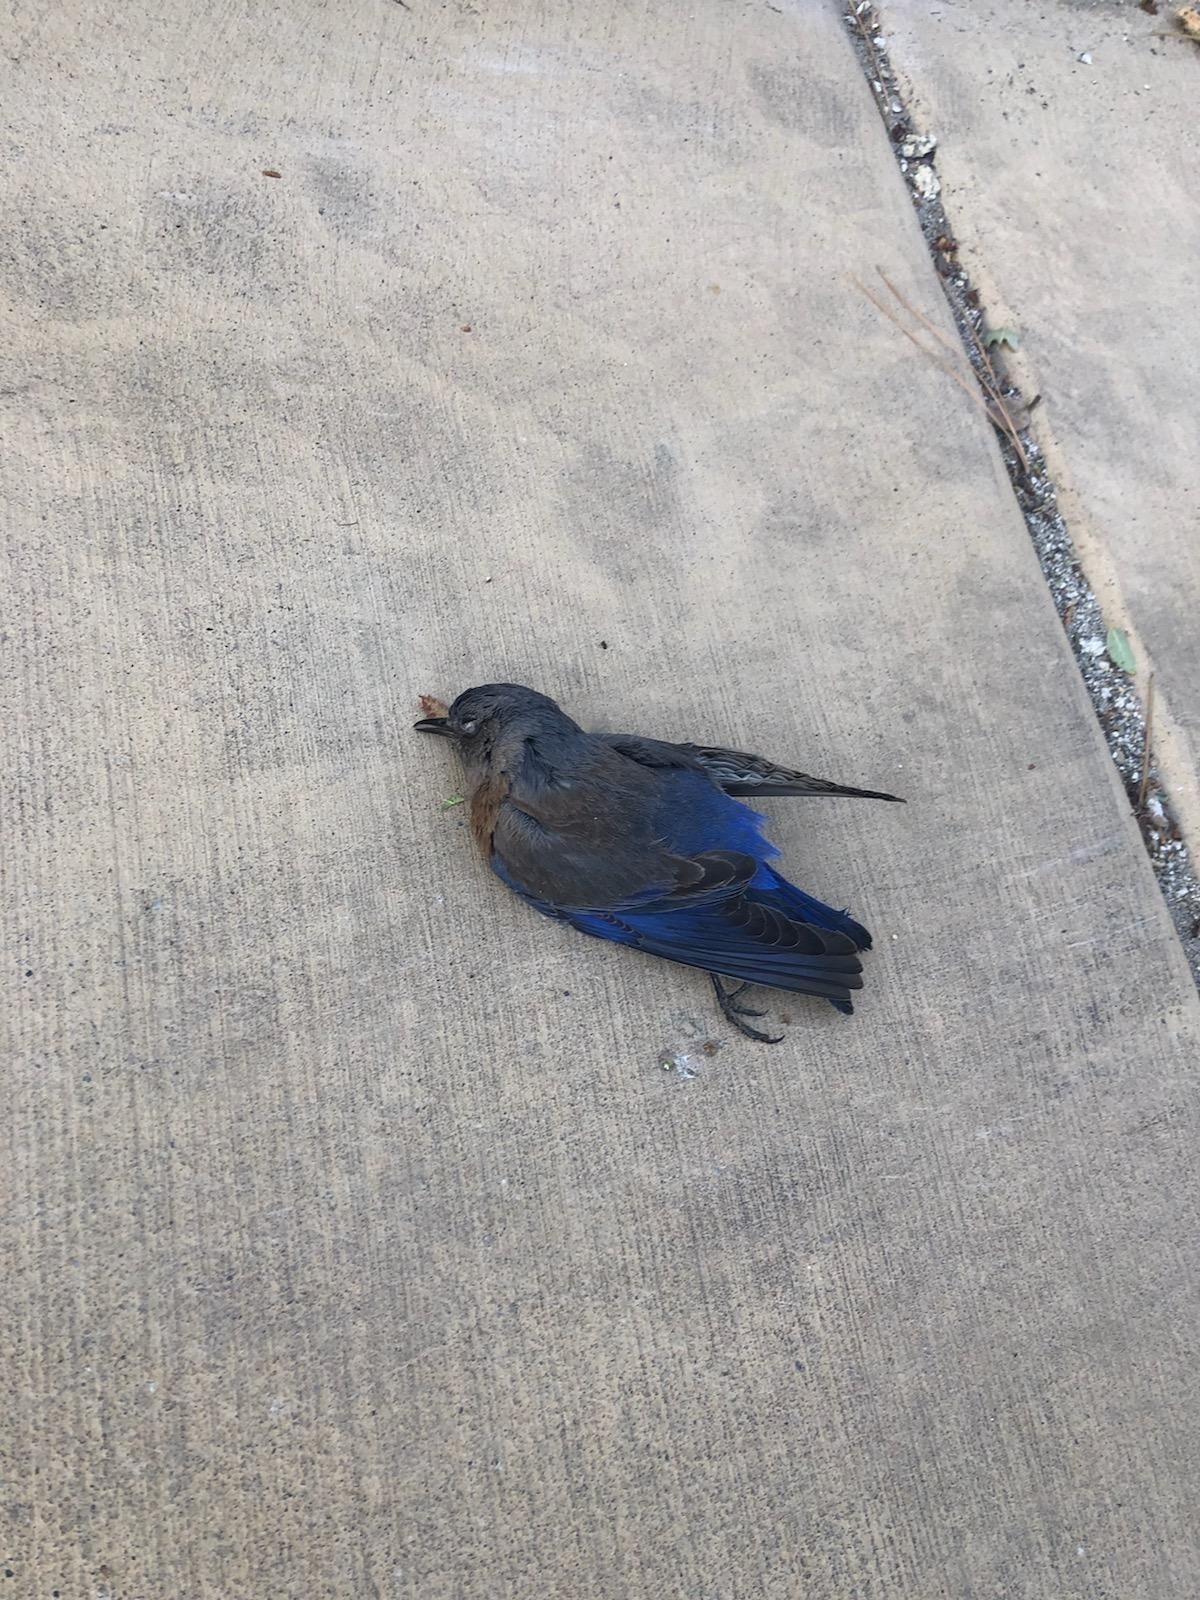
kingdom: Animalia
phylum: Chordata
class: Aves
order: Passeriformes
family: Turdidae
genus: Sialia
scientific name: Sialia mexicana
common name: Western bluebird
